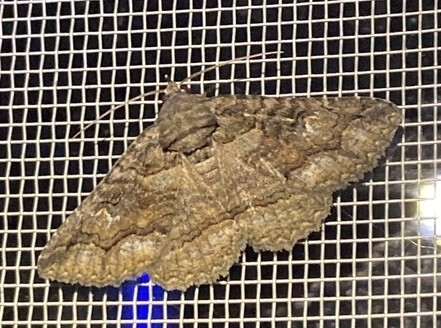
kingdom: Animalia
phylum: Arthropoda
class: Insecta
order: Lepidoptera
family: Erebidae
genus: Zale
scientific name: Zale edusina
